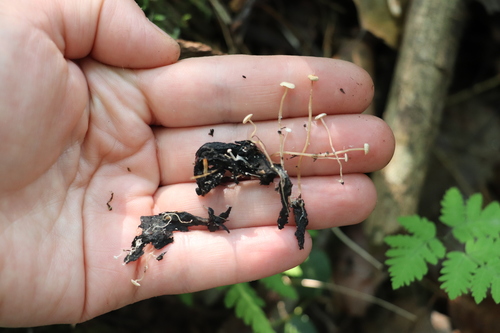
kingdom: Fungi
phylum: Basidiomycota
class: Agaricomycetes
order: Agaricales
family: Tricholomataceae
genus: Collybia
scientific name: Collybia cirrhata
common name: Piggyback shanklet
